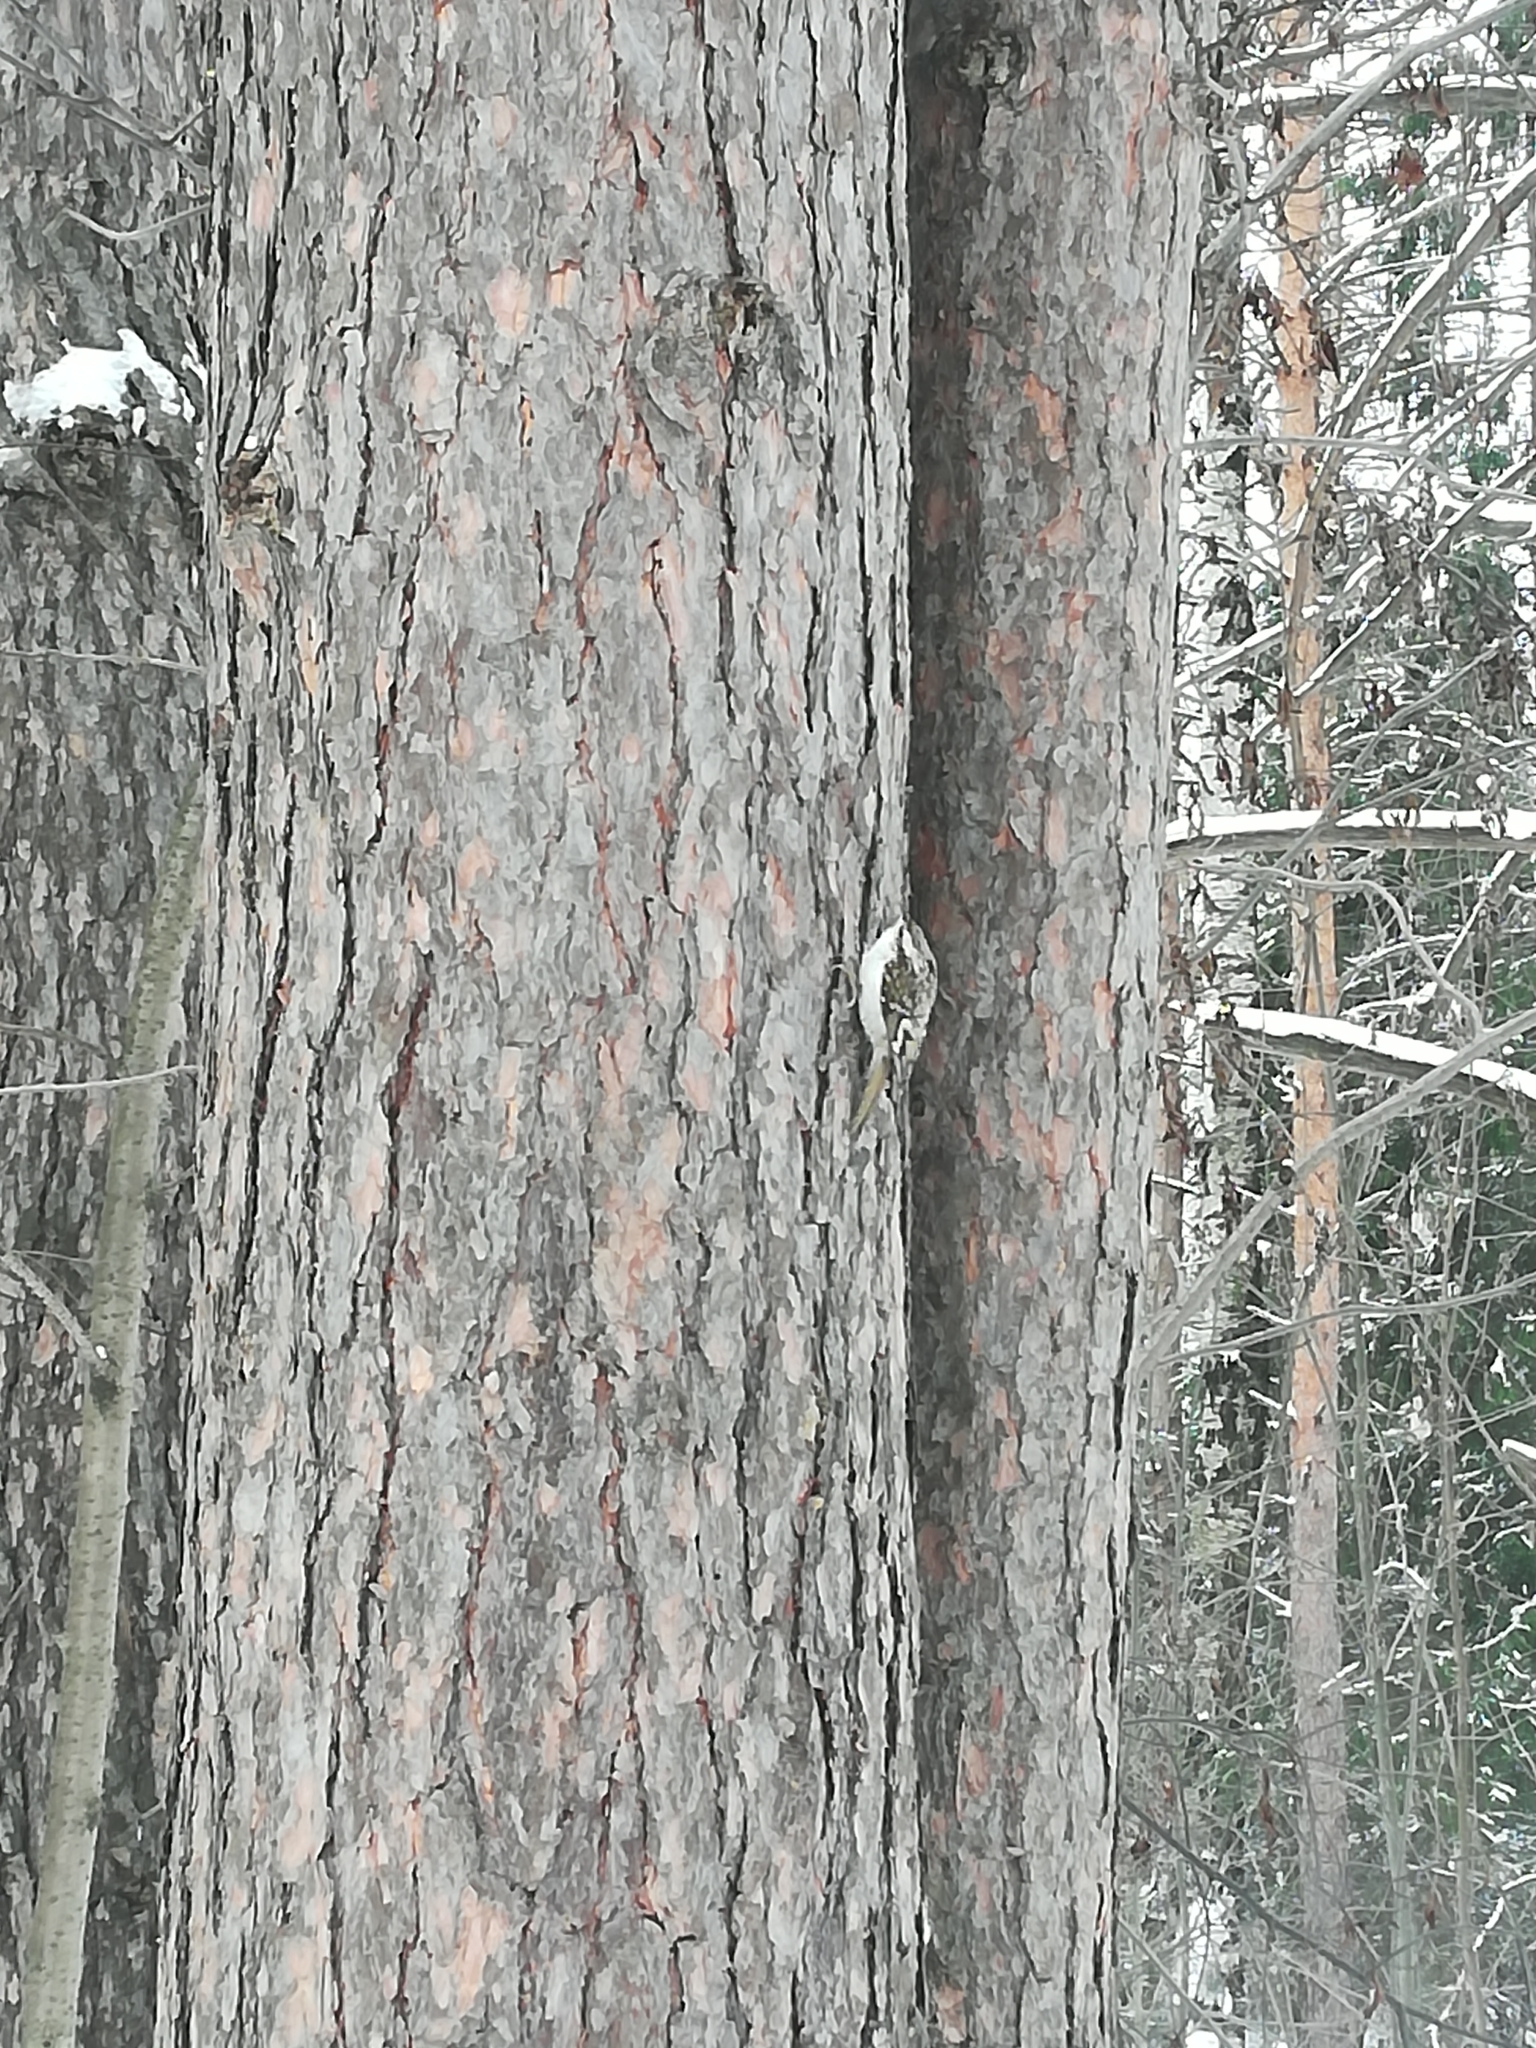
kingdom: Animalia
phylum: Chordata
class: Aves
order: Passeriformes
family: Certhiidae
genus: Certhia
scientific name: Certhia familiaris
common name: Eurasian treecreeper
